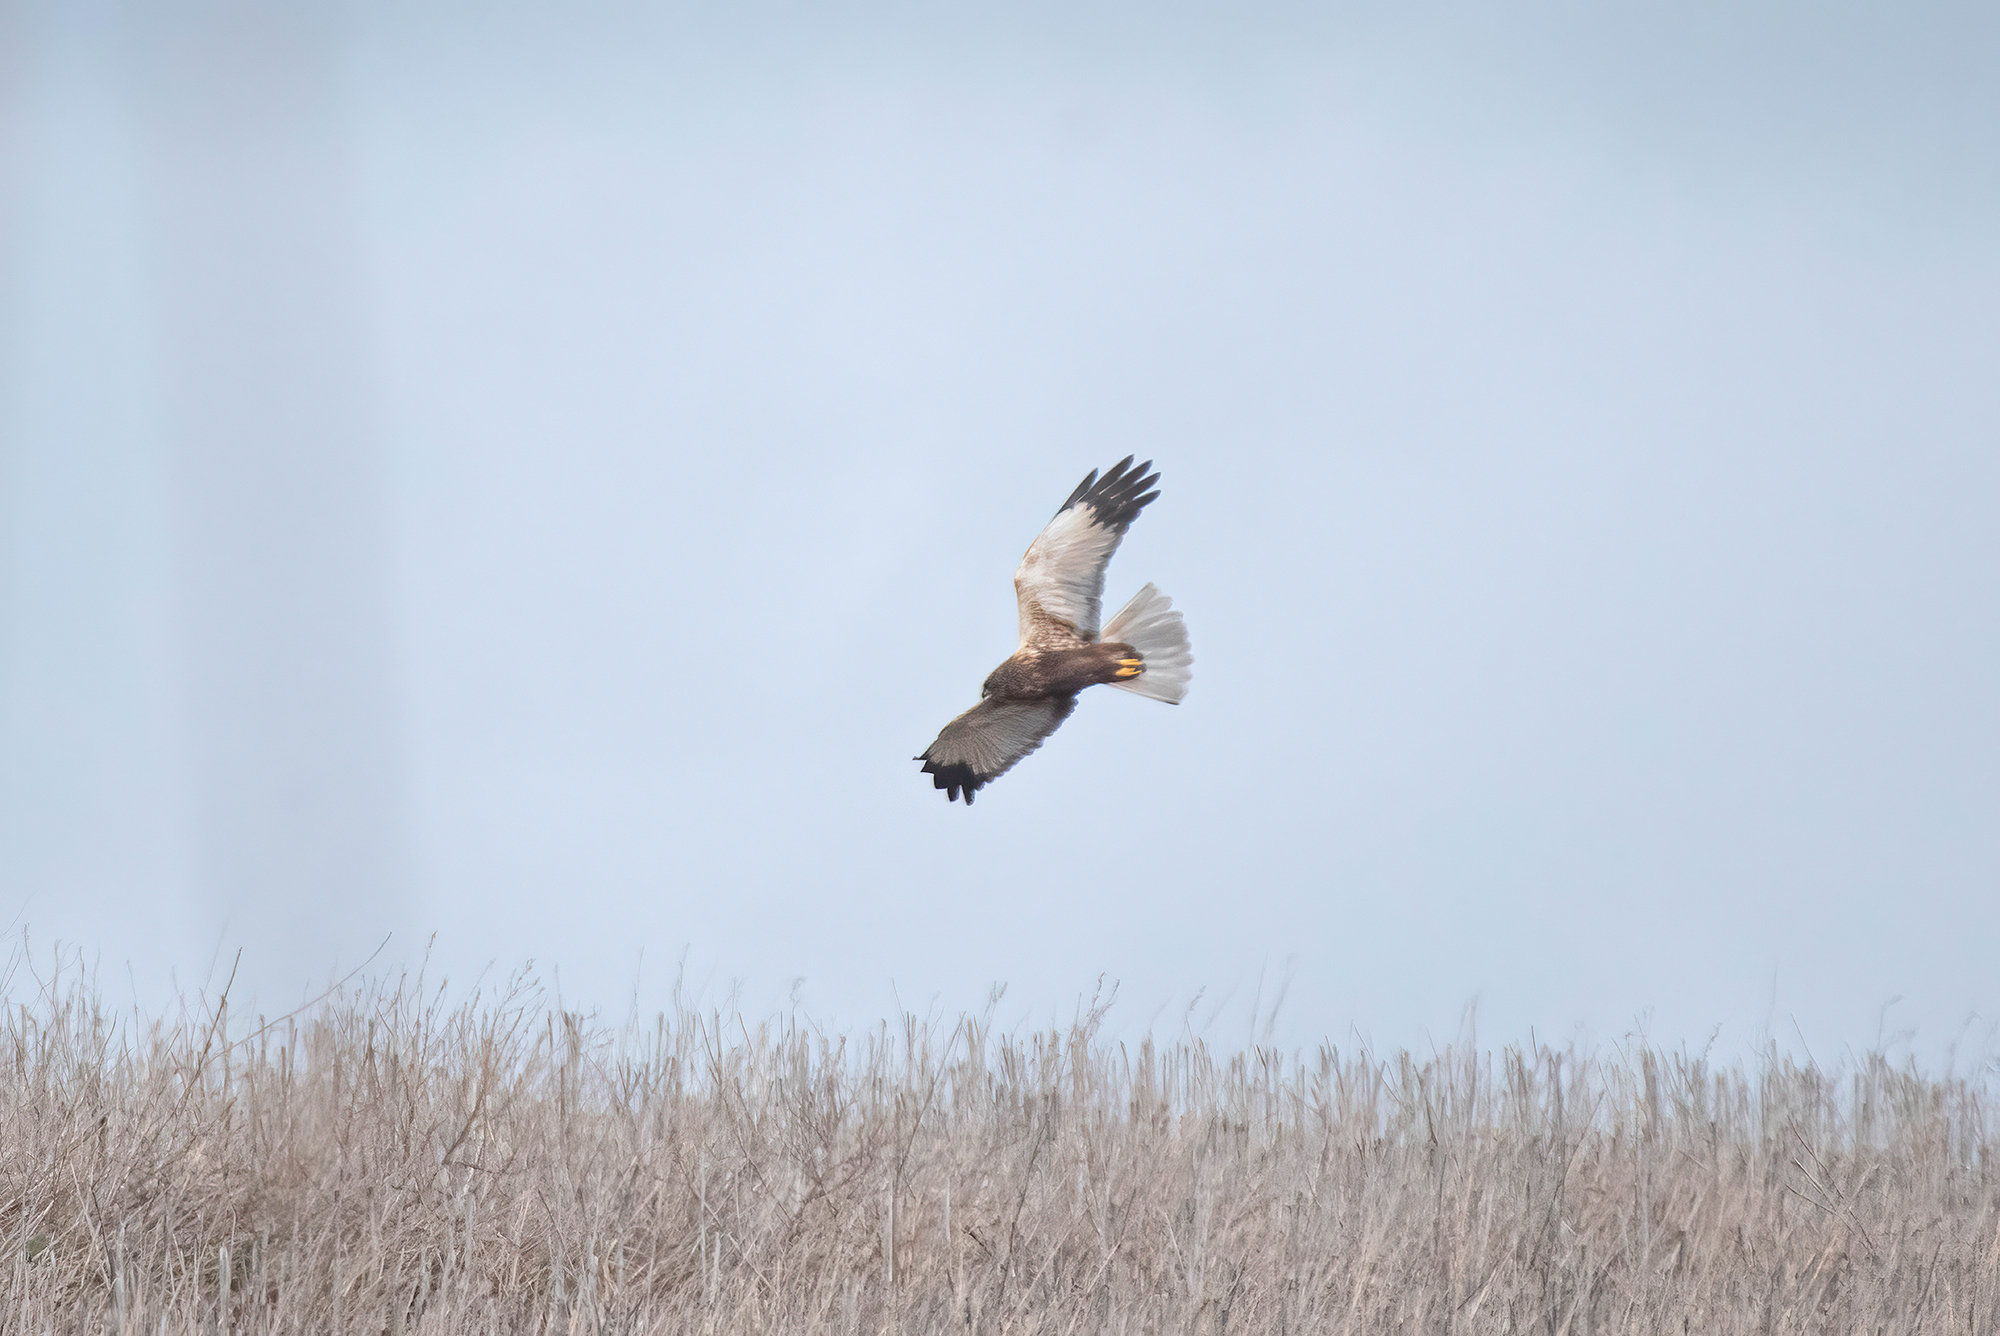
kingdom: Animalia
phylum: Chordata
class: Aves
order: Accipitriformes
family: Accipitridae
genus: Circus
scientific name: Circus aeruginosus
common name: Western marsh harrier
